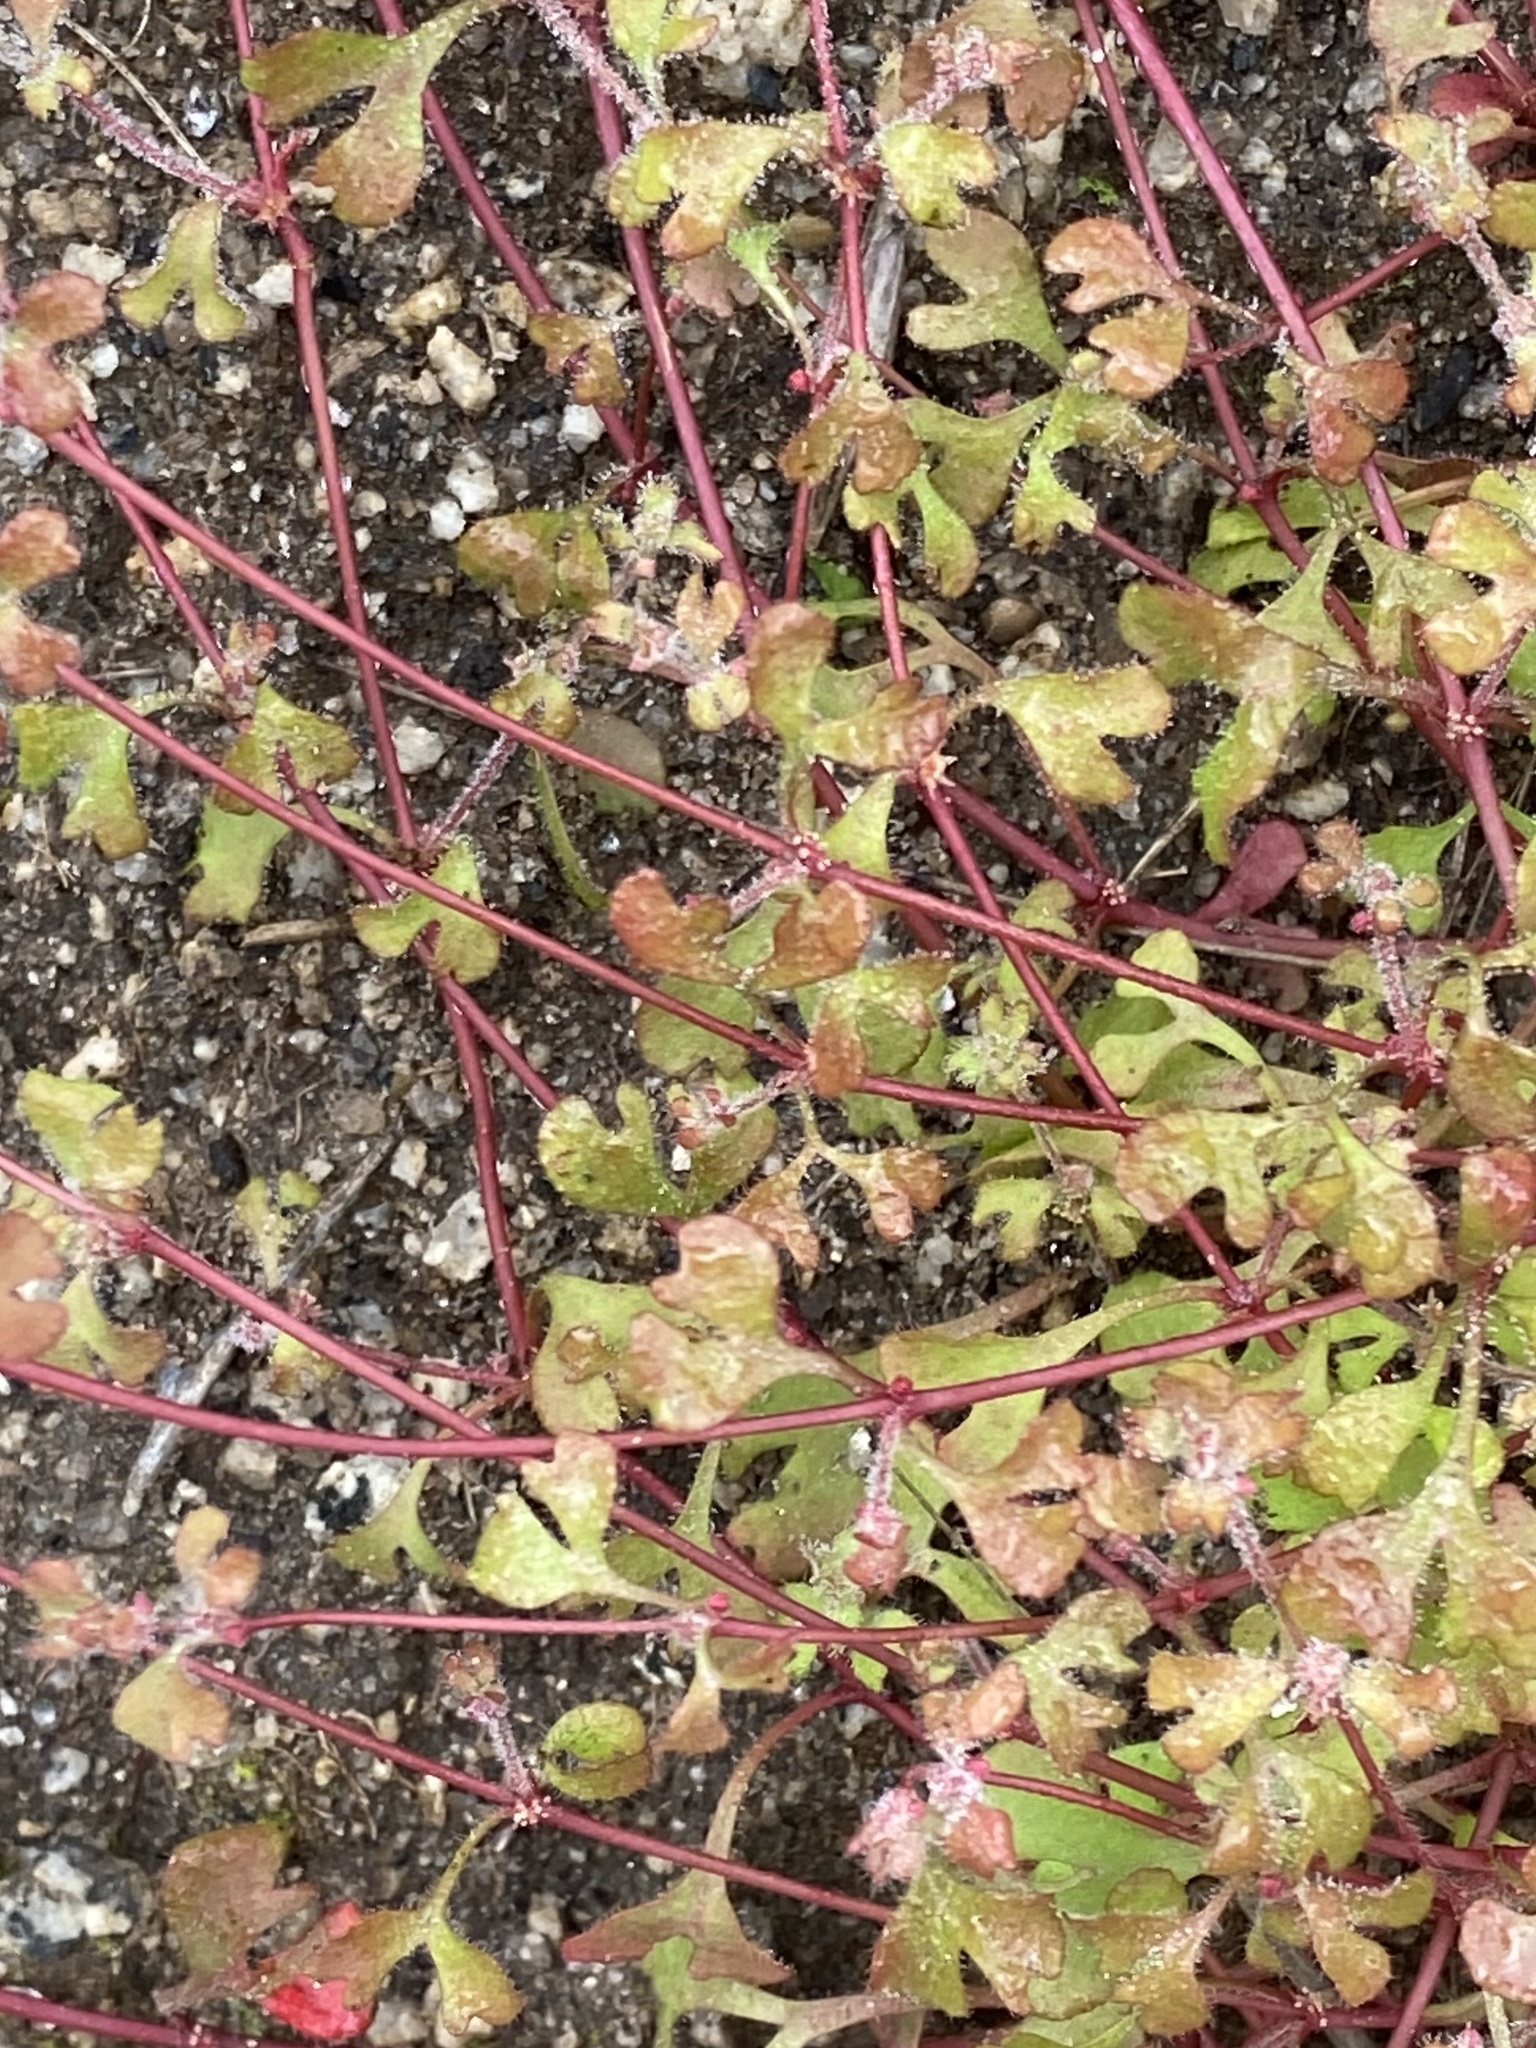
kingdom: Plantae
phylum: Tracheophyta
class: Magnoliopsida
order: Caryophyllales
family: Polygonaceae
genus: Pterostegia
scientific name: Pterostegia drymarioides
